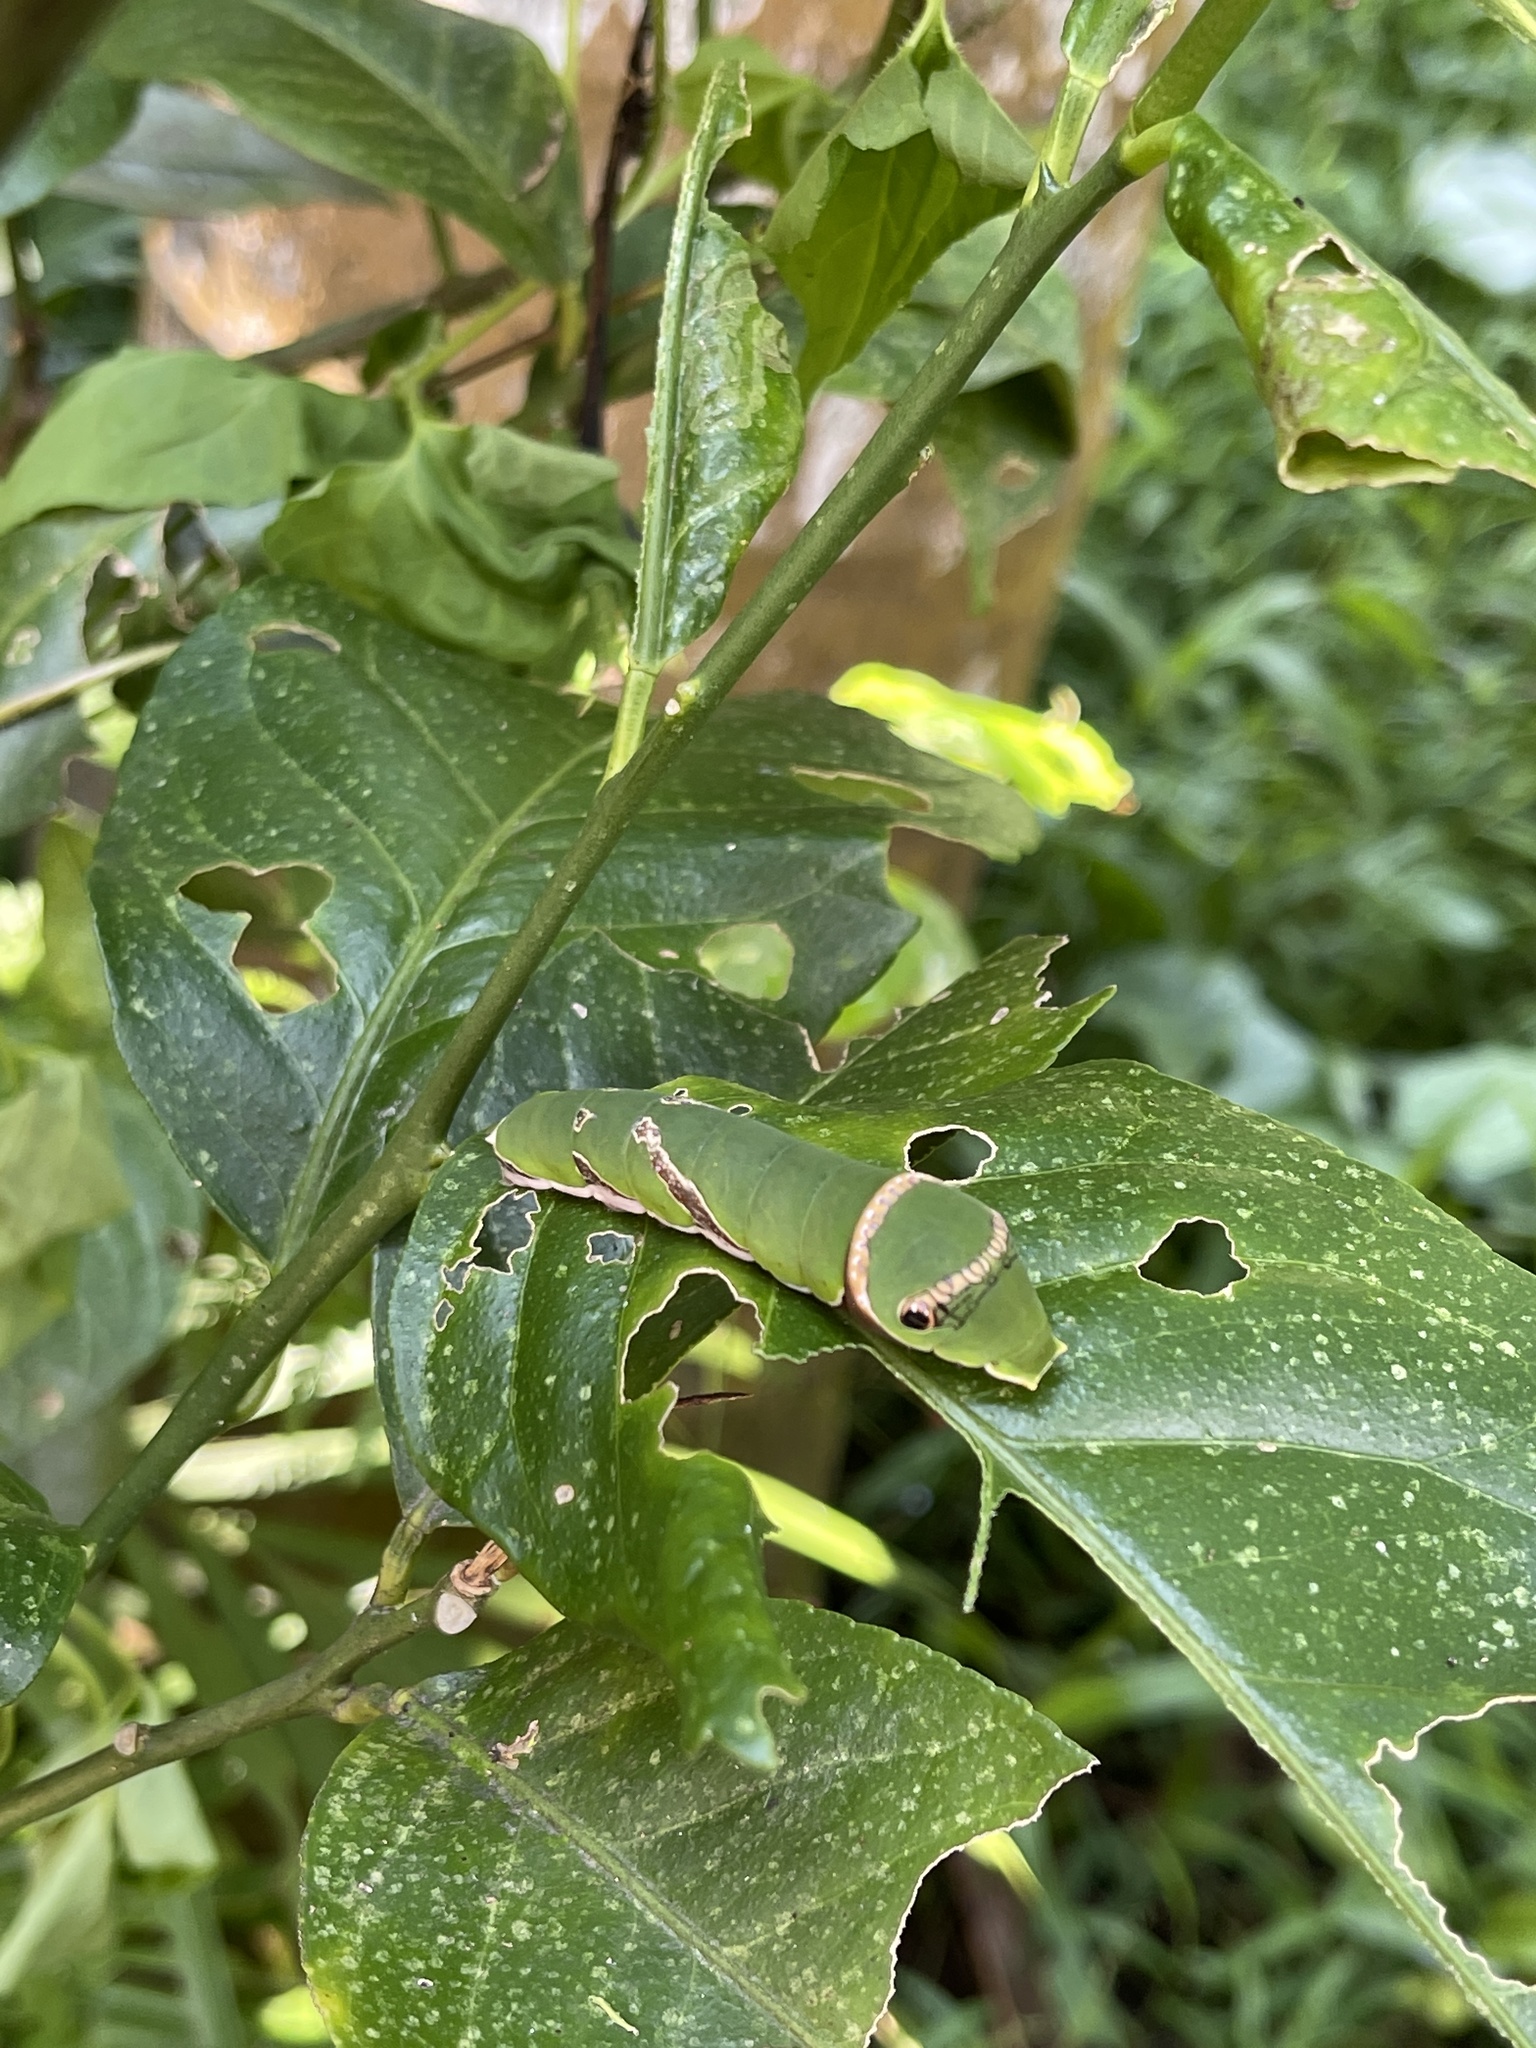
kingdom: Animalia
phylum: Arthropoda
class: Insecta
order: Lepidoptera
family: Papilionidae
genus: Papilio
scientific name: Papilio polytes
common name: Common mormon
